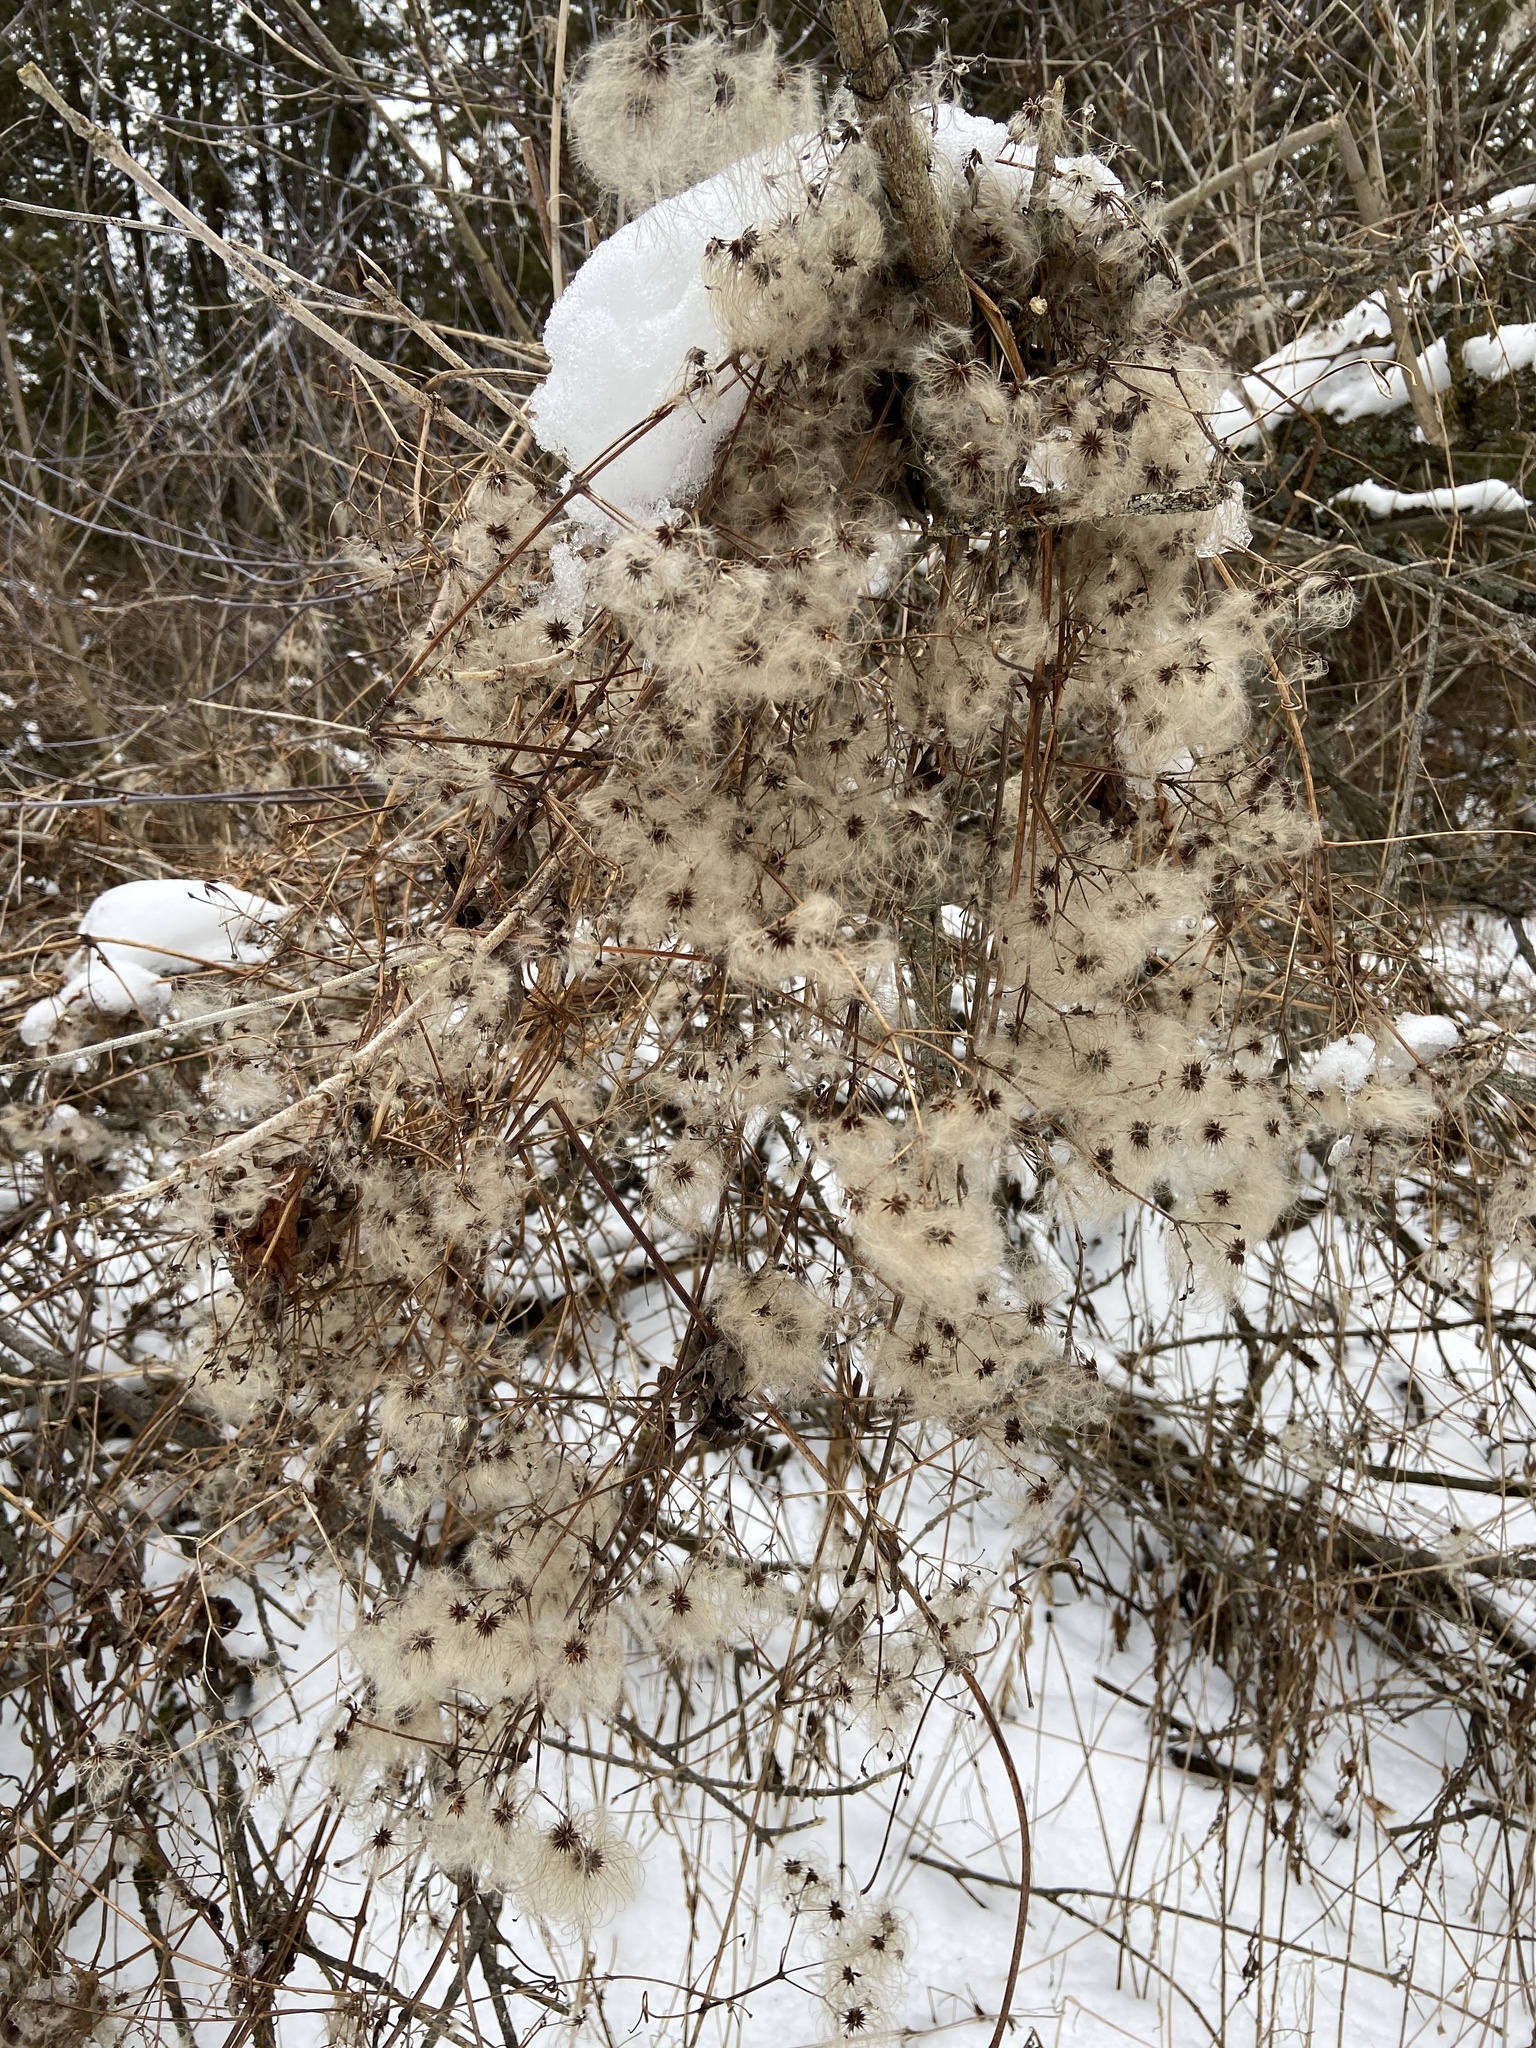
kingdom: Plantae
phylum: Tracheophyta
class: Magnoliopsida
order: Ranunculales
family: Ranunculaceae
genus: Clematis
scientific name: Clematis virginiana
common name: Virgin's-bower
